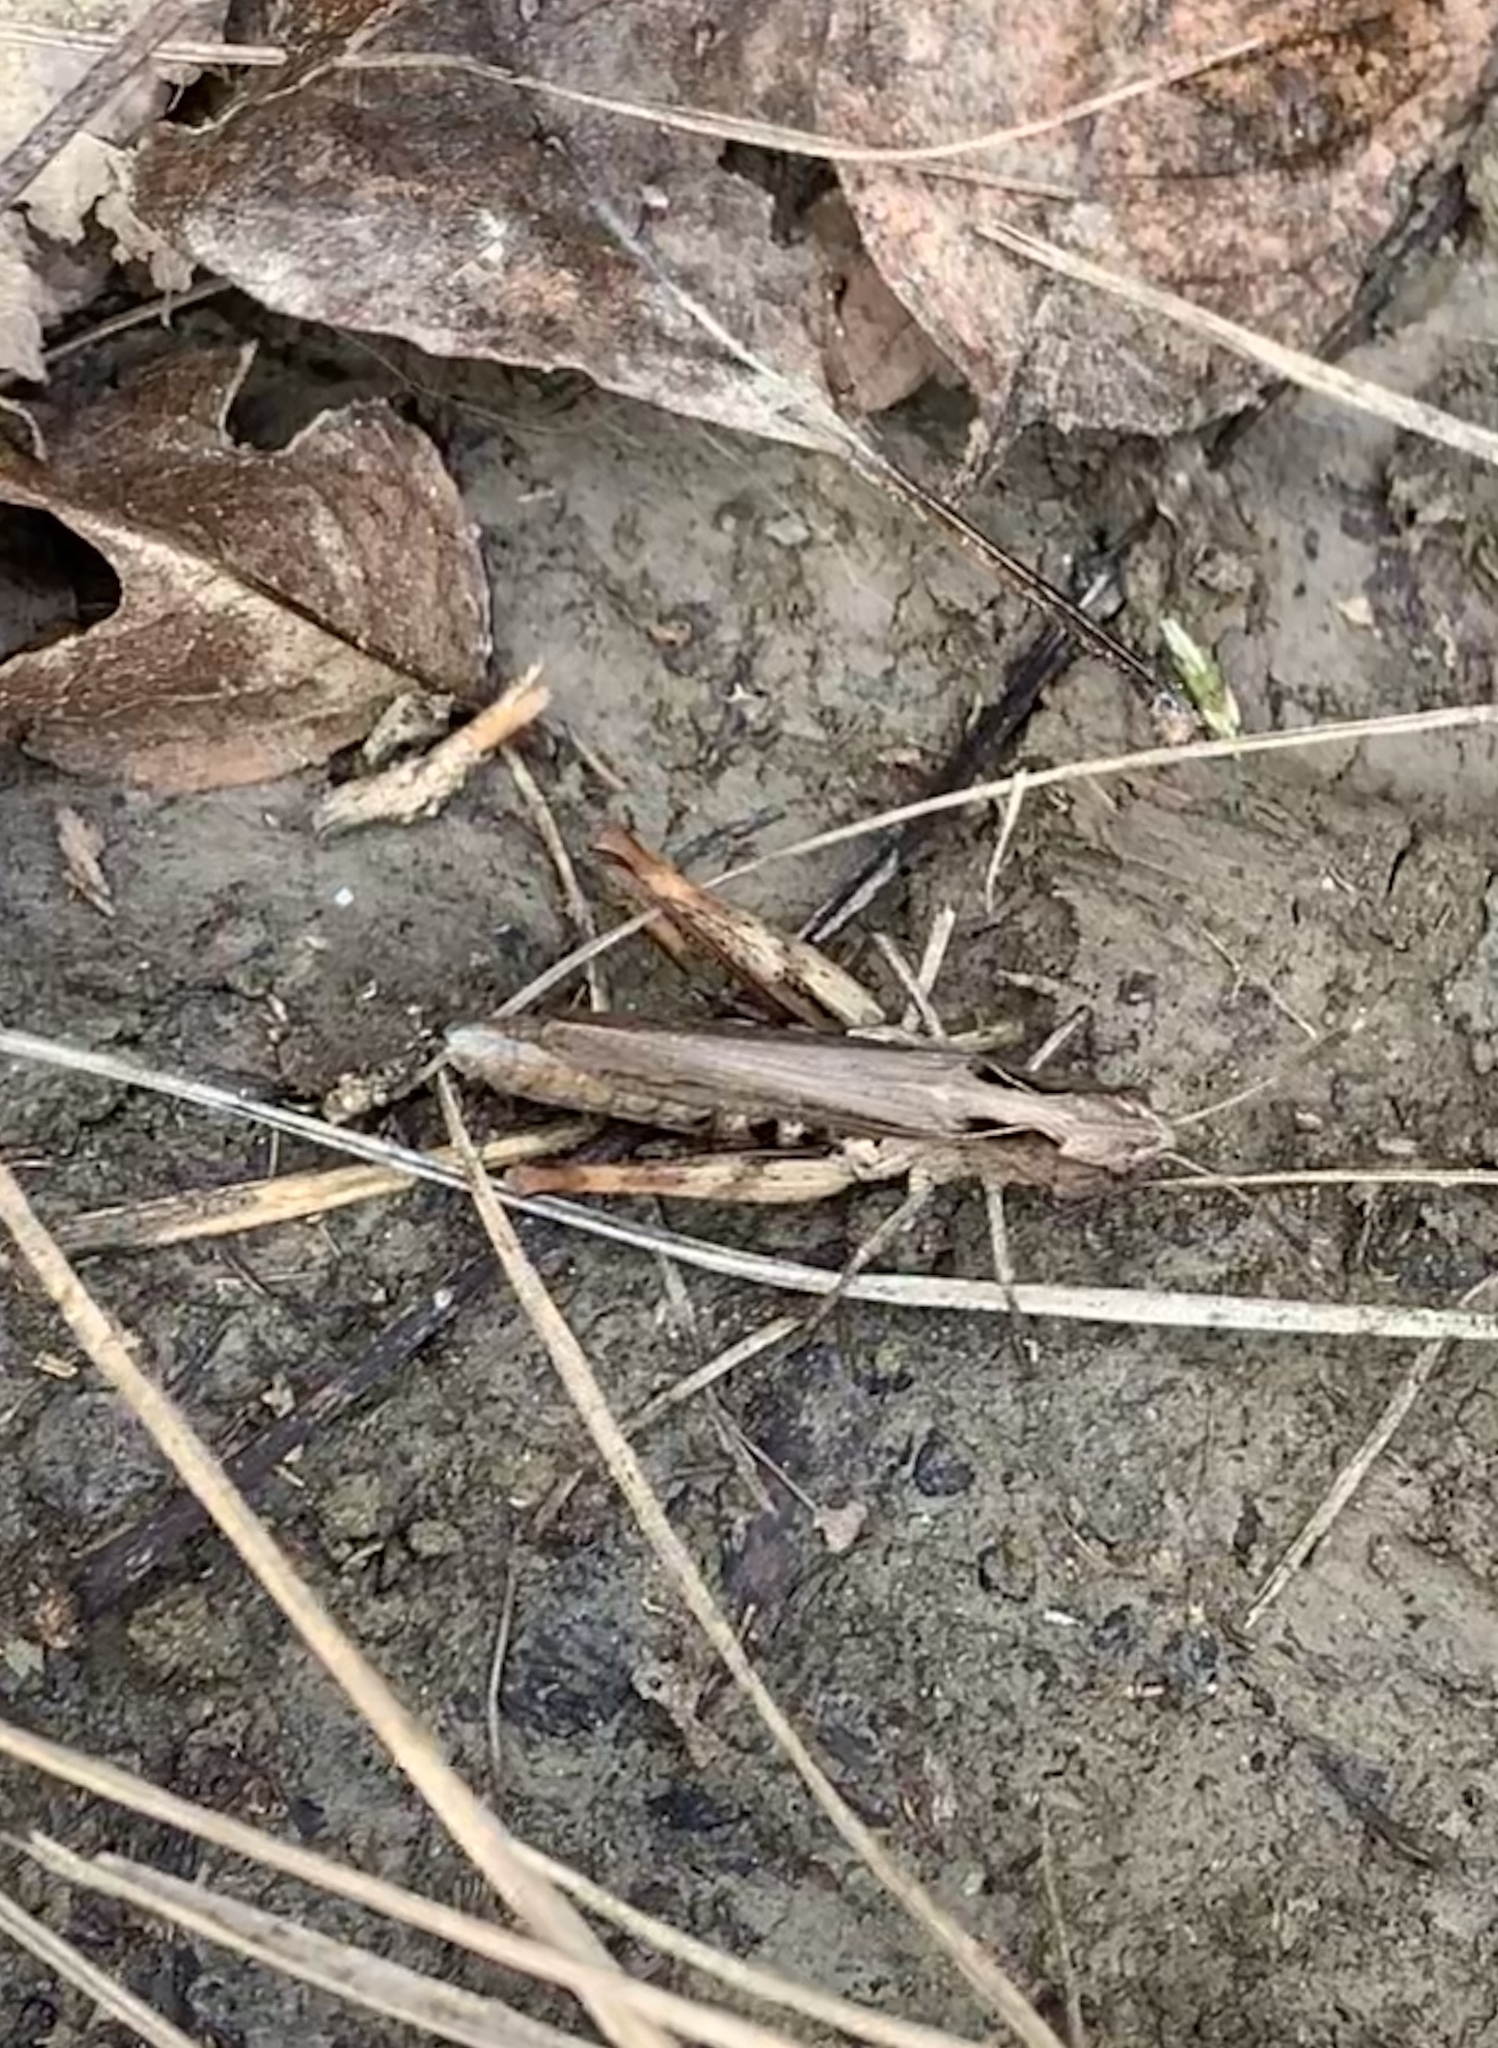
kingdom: Animalia
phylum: Arthropoda
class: Insecta
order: Orthoptera
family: Acrididae
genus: Gomphocerippus
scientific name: Gomphocerippus rufus
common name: Rufous grasshopper
